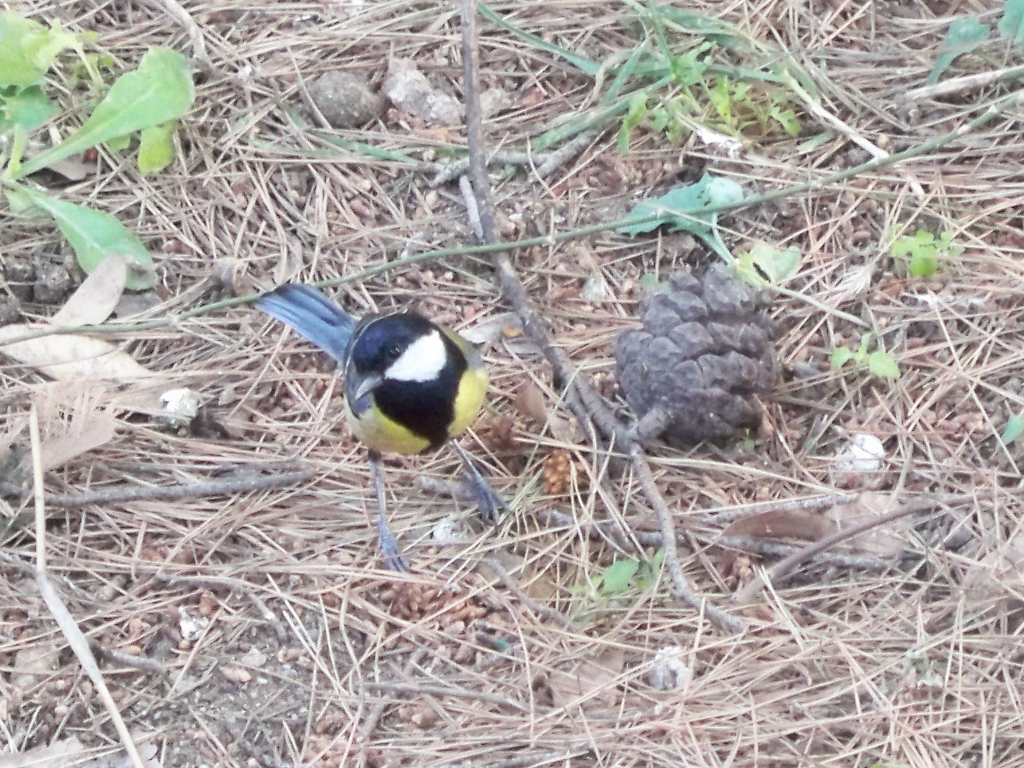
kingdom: Animalia
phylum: Chordata
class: Aves
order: Passeriformes
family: Paridae
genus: Parus
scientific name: Parus major
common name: Great tit
